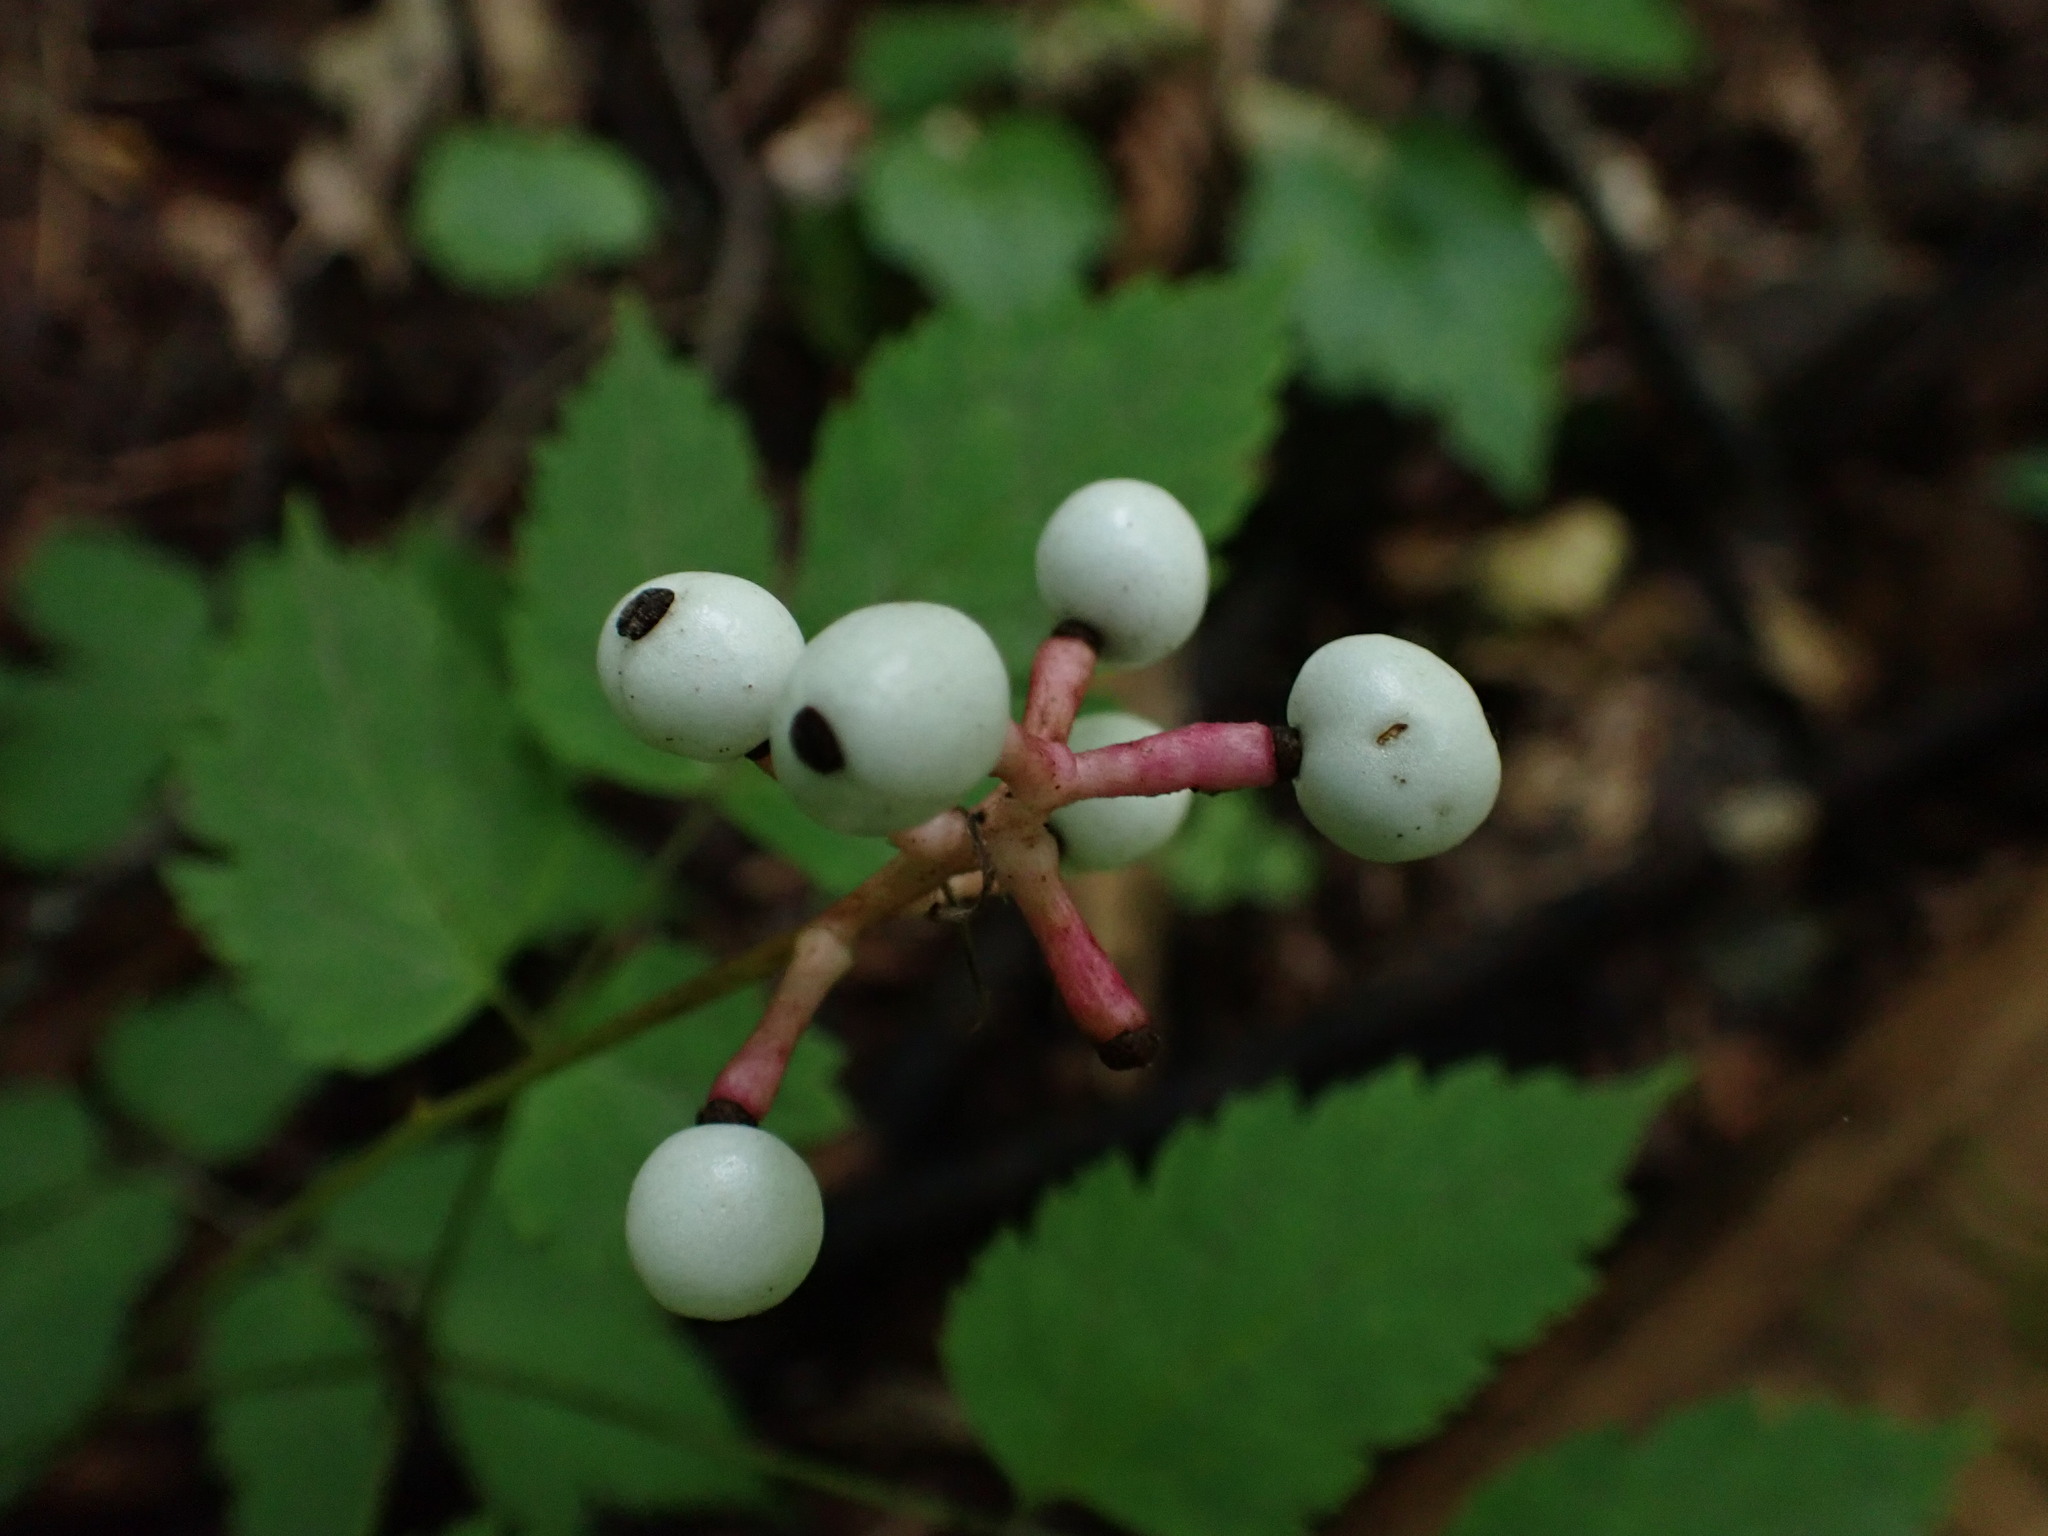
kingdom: Plantae
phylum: Tracheophyta
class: Magnoliopsida
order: Ranunculales
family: Ranunculaceae
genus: Actaea
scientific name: Actaea pachypoda
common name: Doll's-eyes
